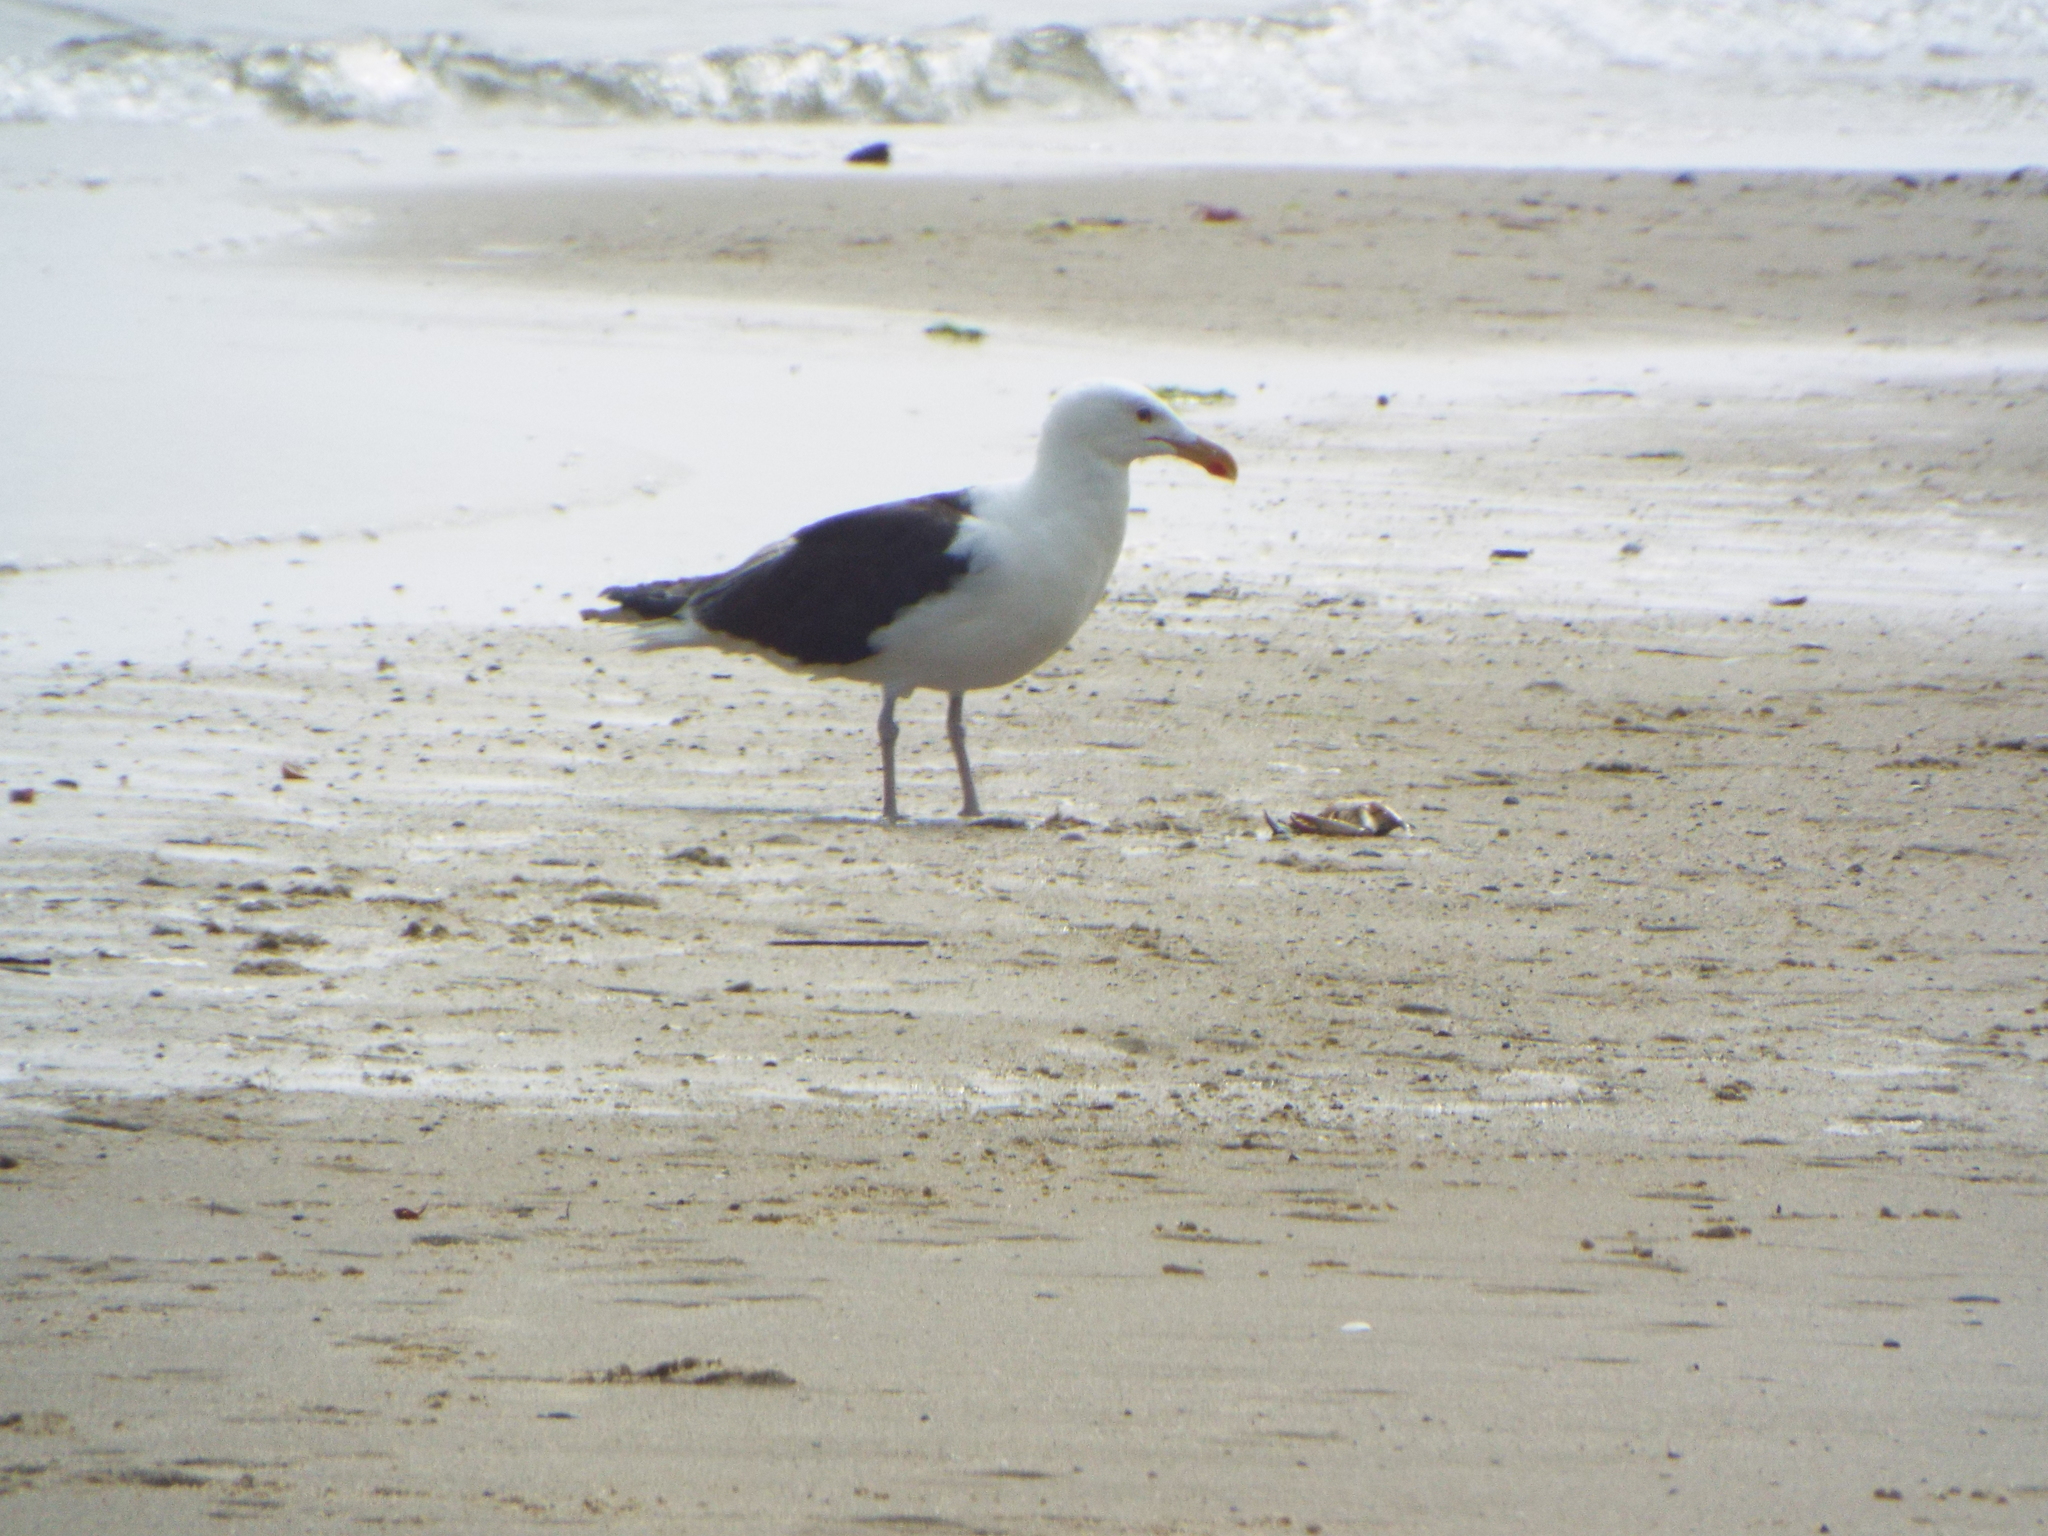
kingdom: Animalia
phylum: Chordata
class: Aves
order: Charadriiformes
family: Laridae
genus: Larus
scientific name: Larus marinus
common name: Great black-backed gull
